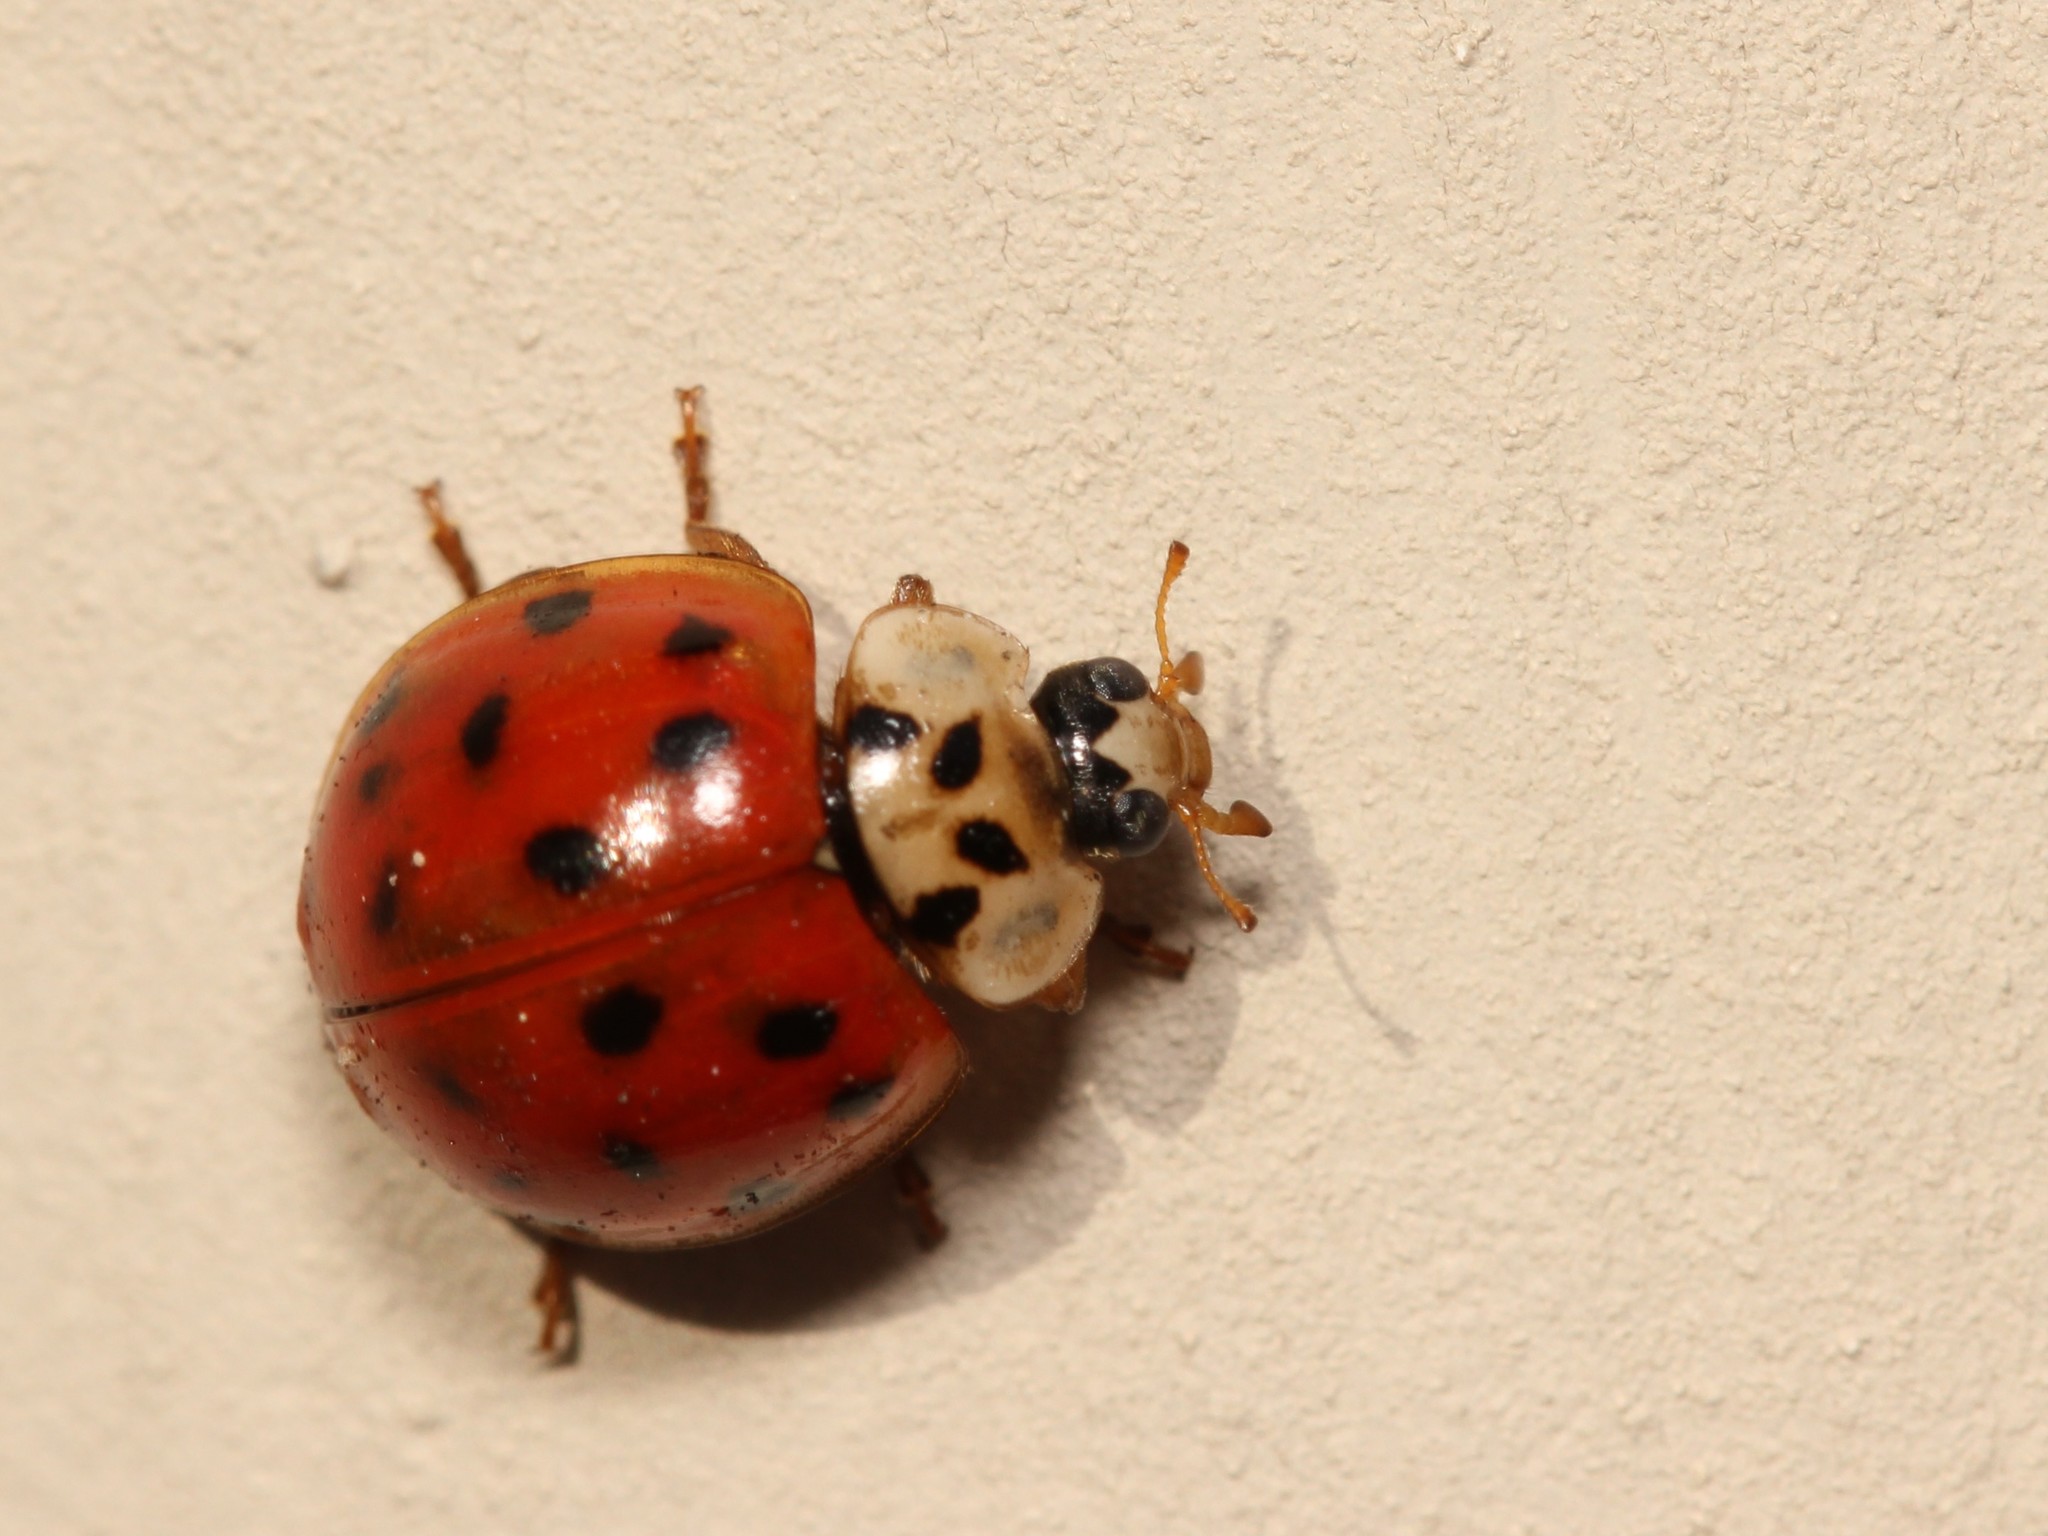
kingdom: Animalia
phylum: Arthropoda
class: Insecta
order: Coleoptera
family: Coccinellidae
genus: Harmonia
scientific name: Harmonia axyridis
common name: Harlequin ladybird
